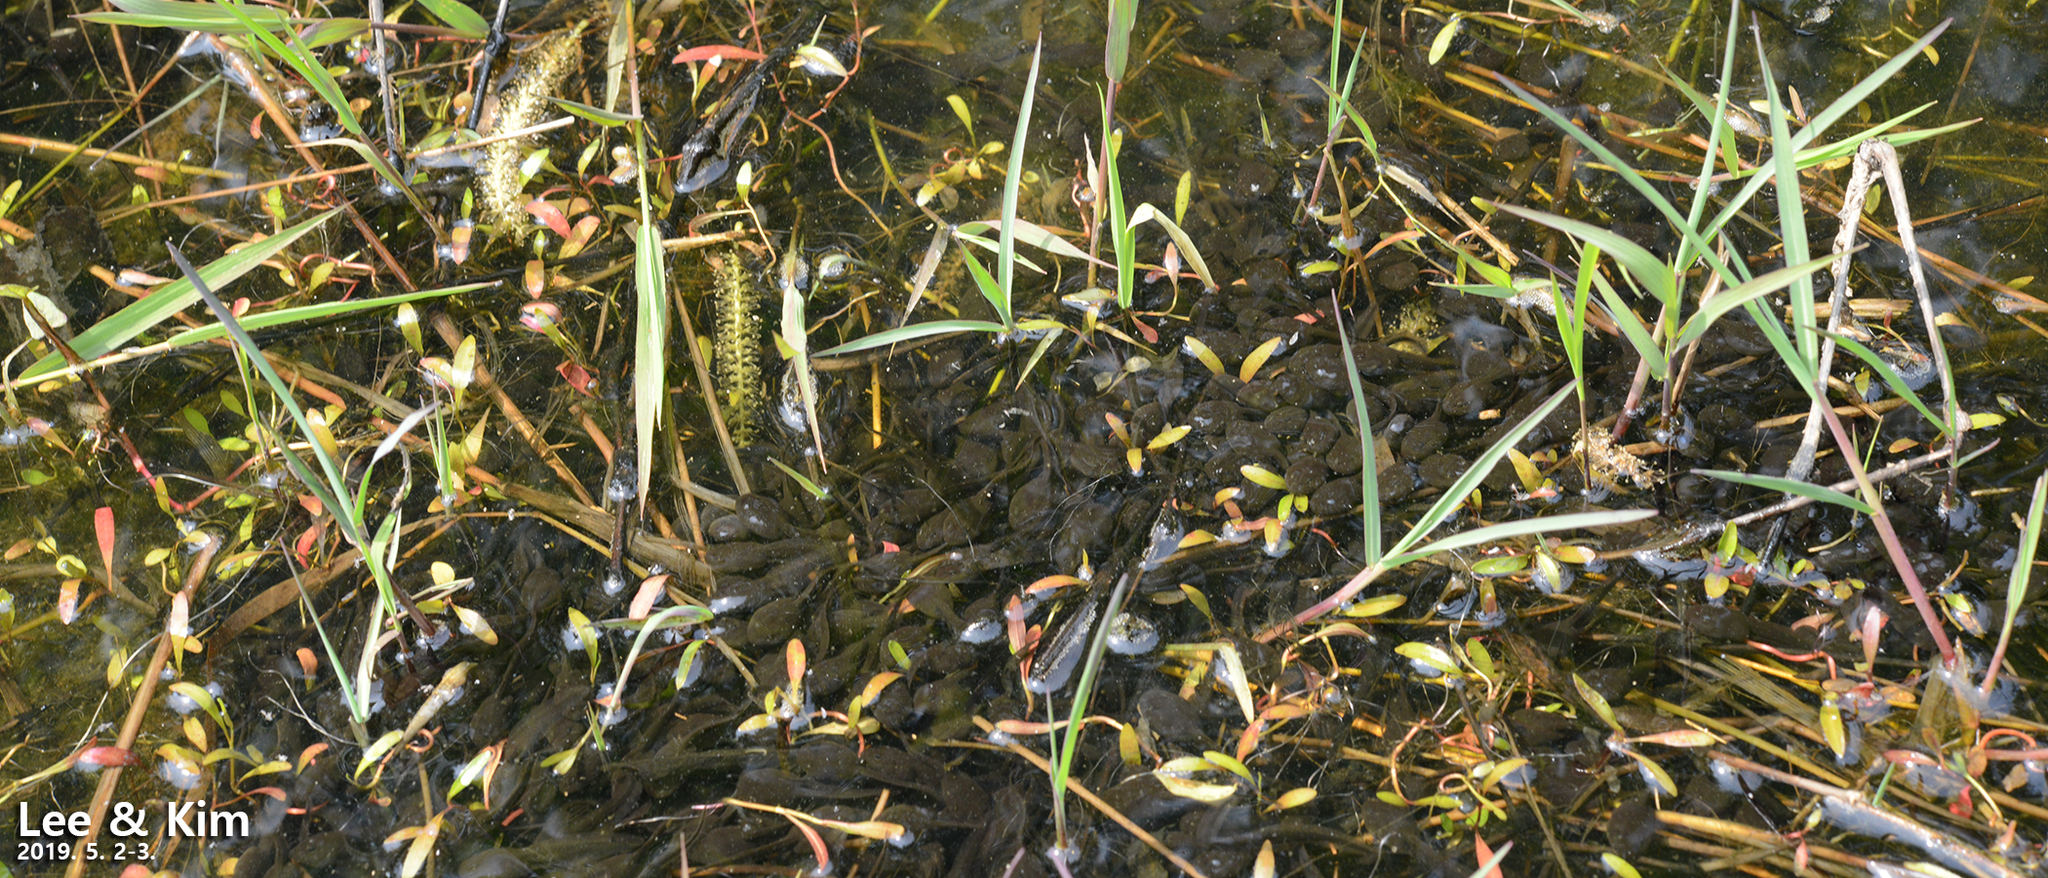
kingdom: Animalia
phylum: Chordata
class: Amphibia
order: Anura
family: Bufonidae
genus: Bufo
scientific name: Bufo gargarizans
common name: Asiatic toad
